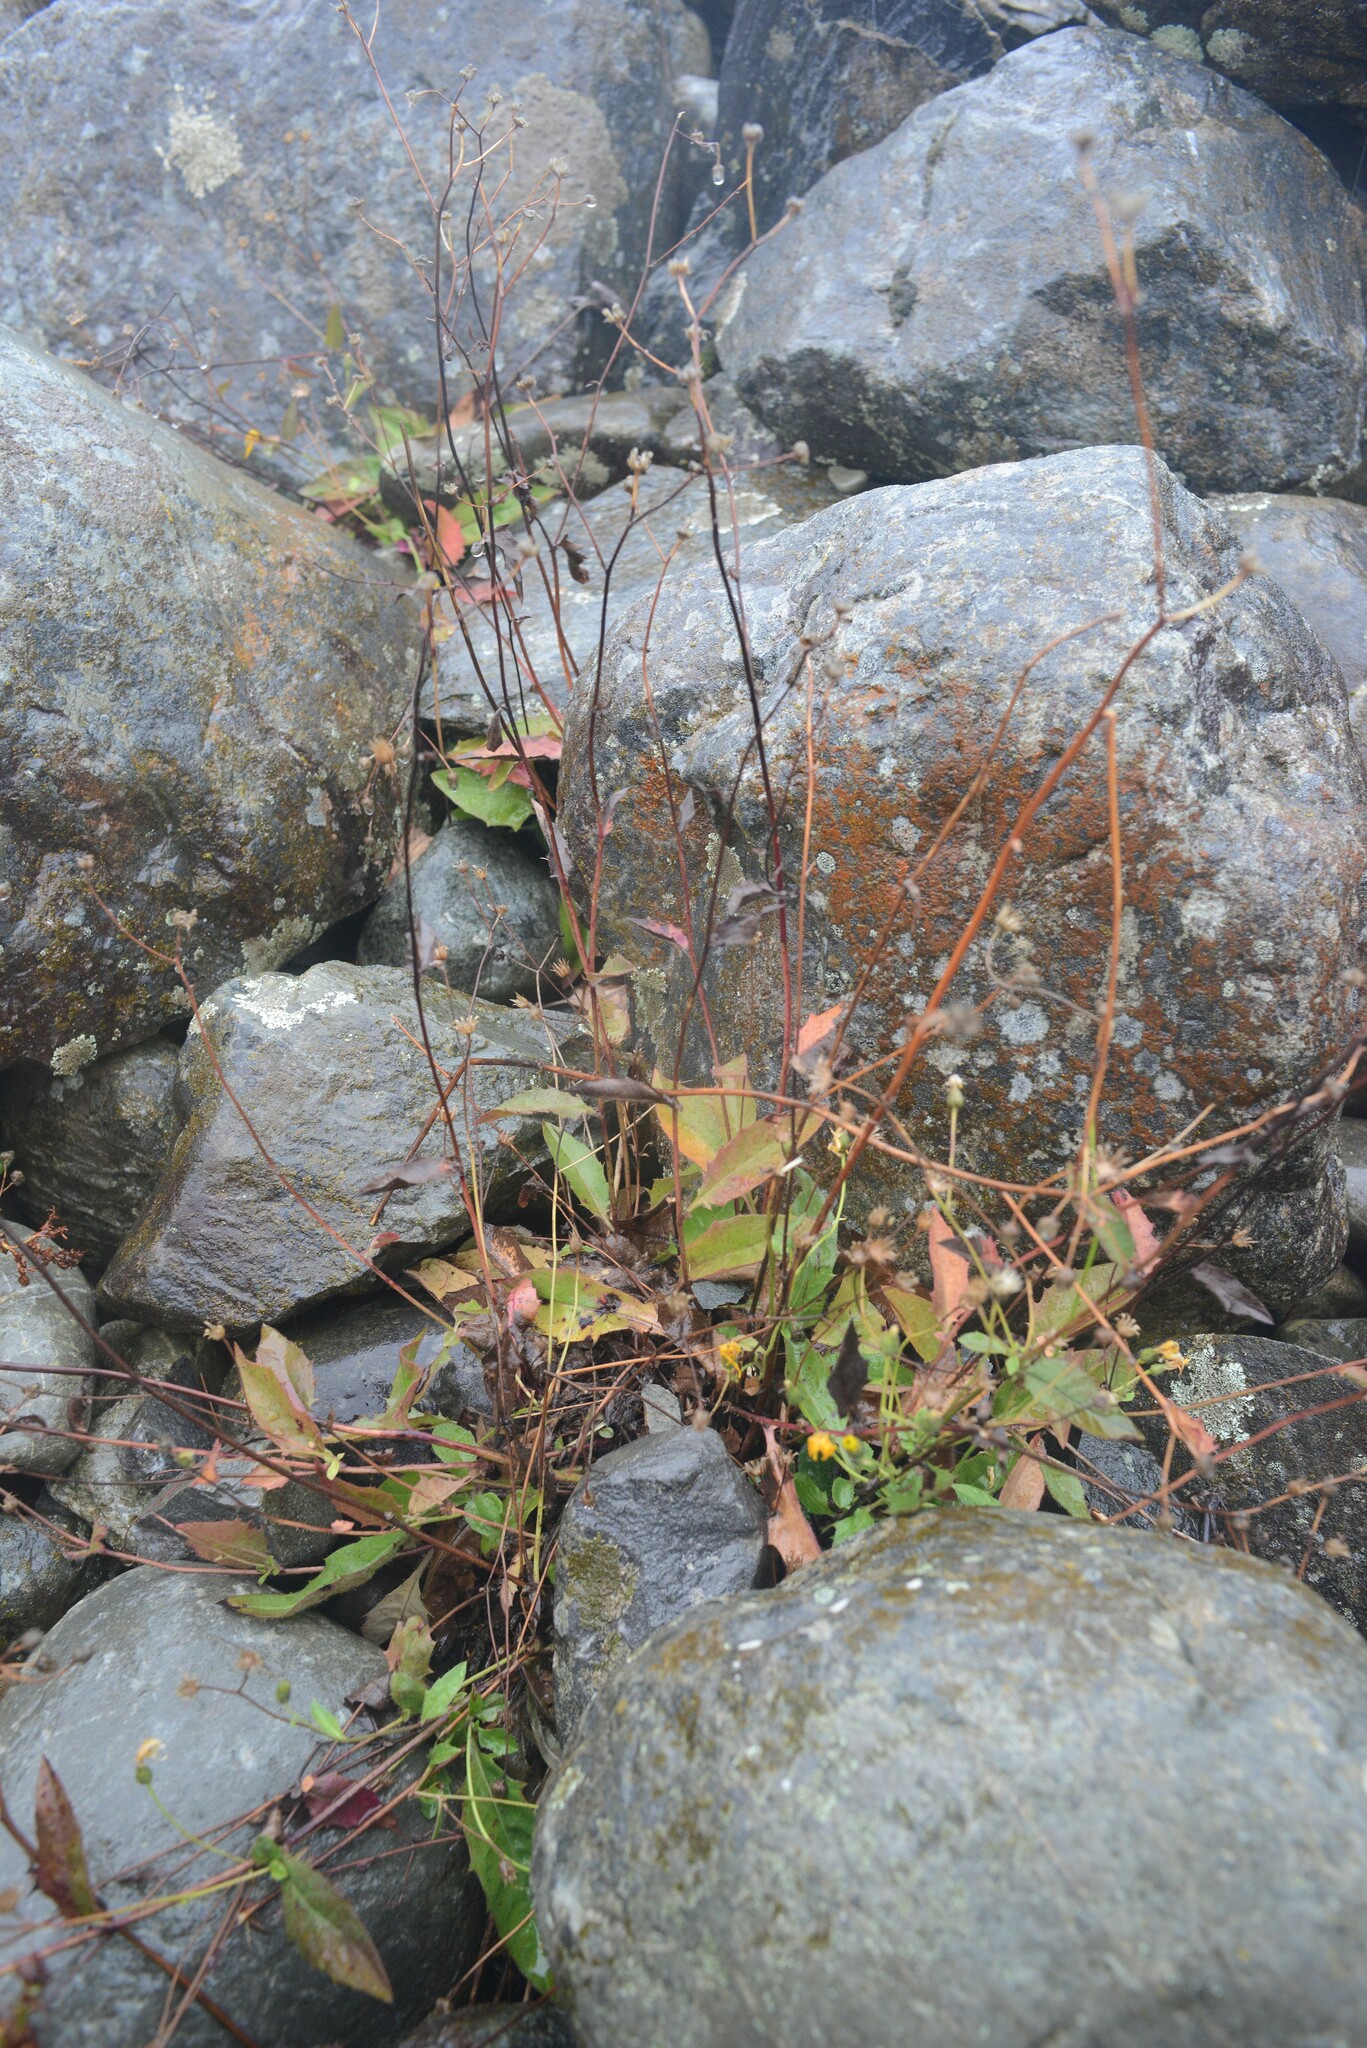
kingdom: Plantae
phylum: Tracheophyta
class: Magnoliopsida
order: Asterales
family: Asteraceae
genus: Hieracium
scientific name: Hieracium lepidulum
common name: Irregular-toothed hawkweed
